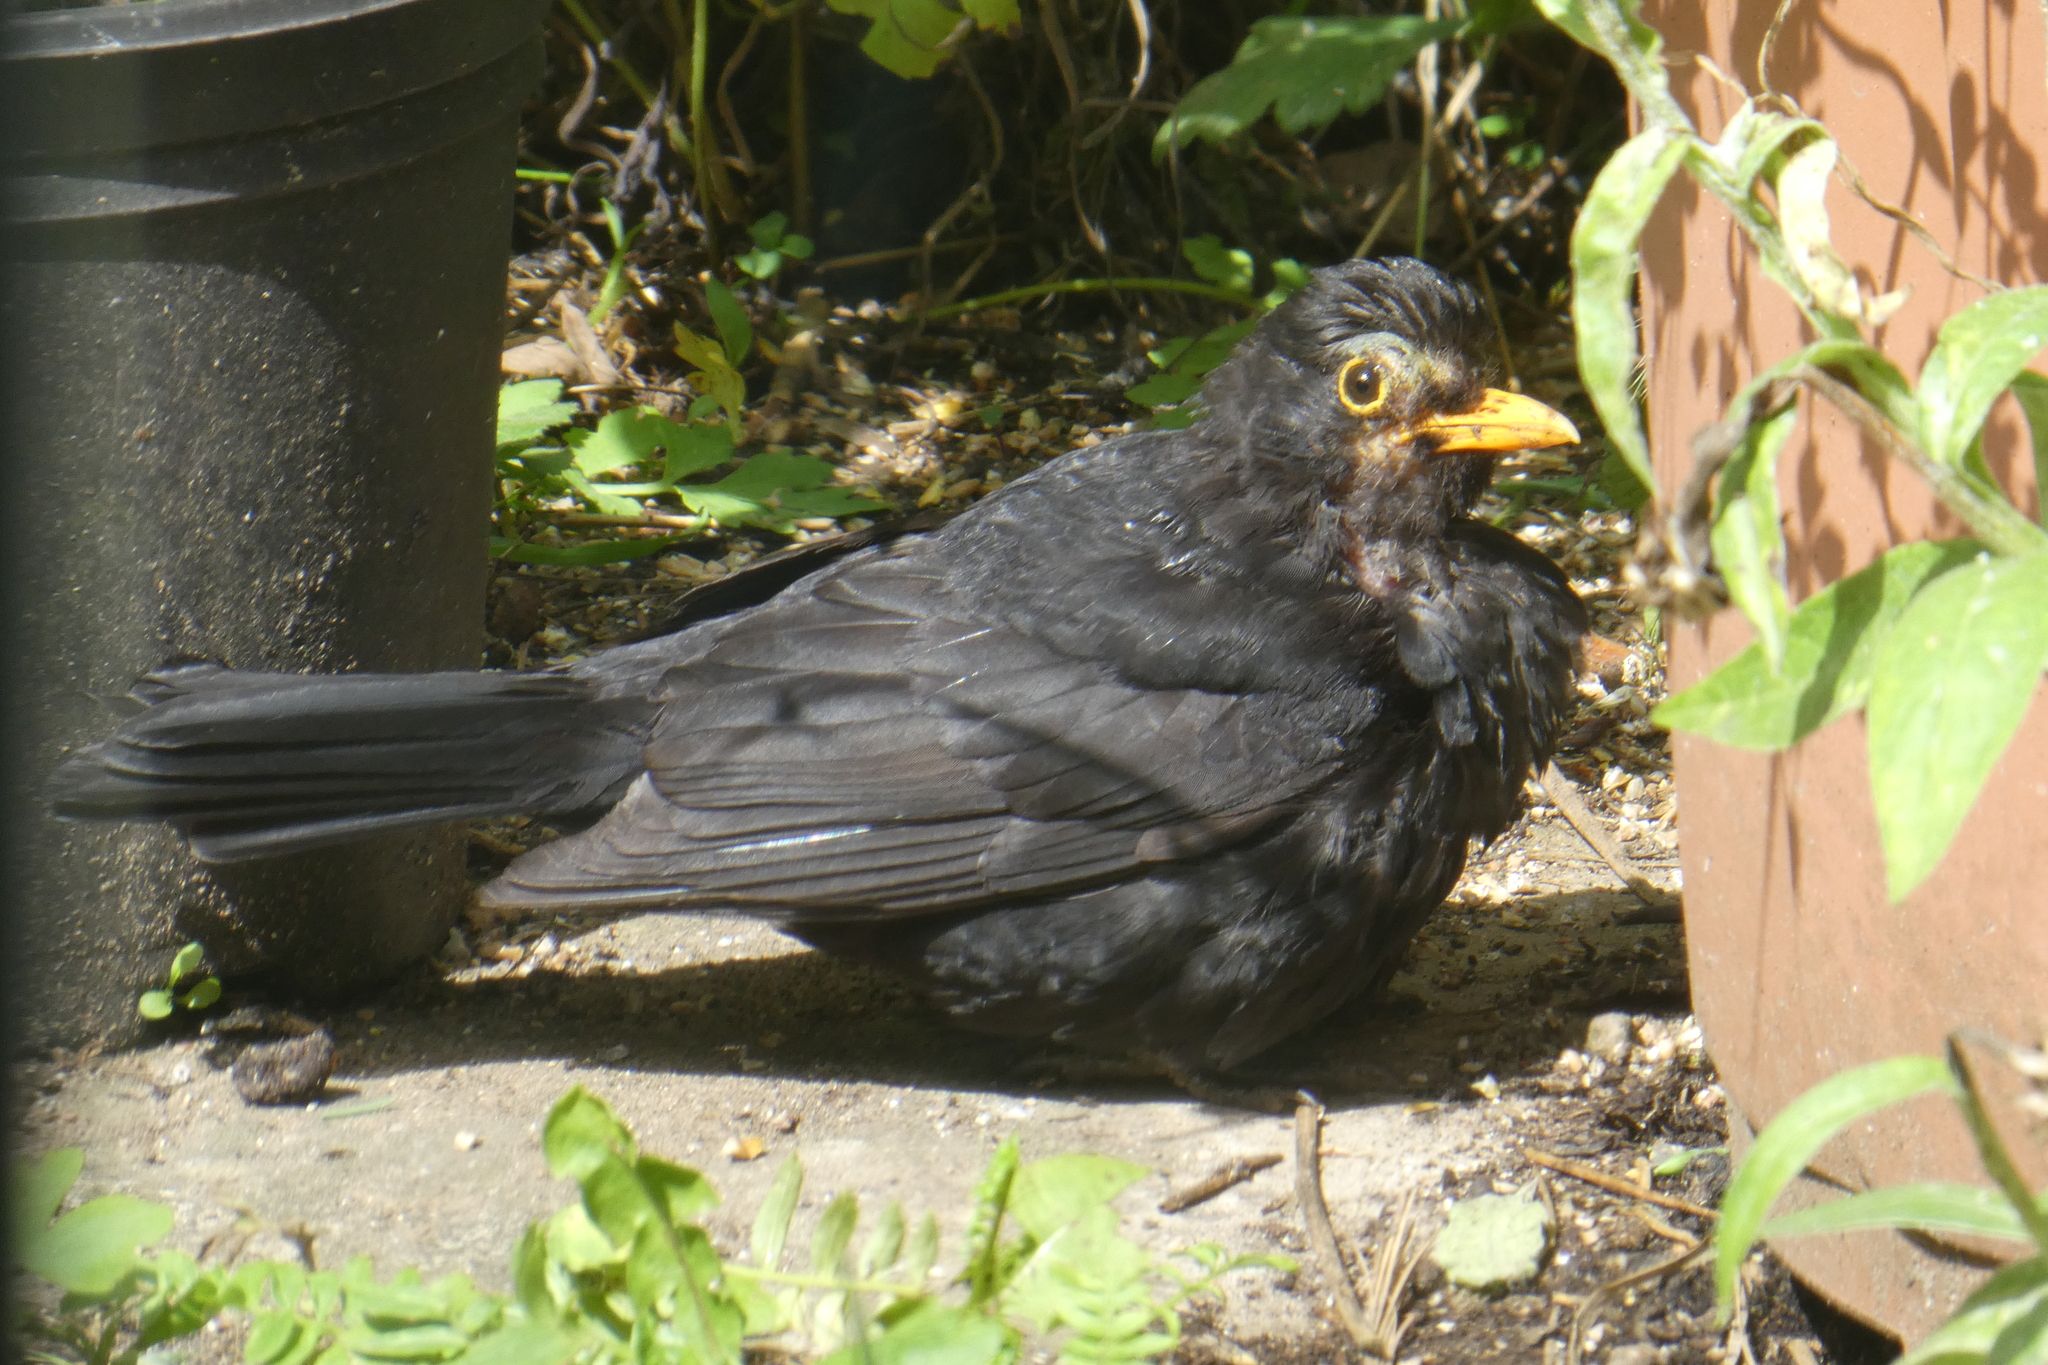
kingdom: Animalia
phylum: Chordata
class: Aves
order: Passeriformes
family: Turdidae
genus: Turdus
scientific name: Turdus merula
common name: Common blackbird
